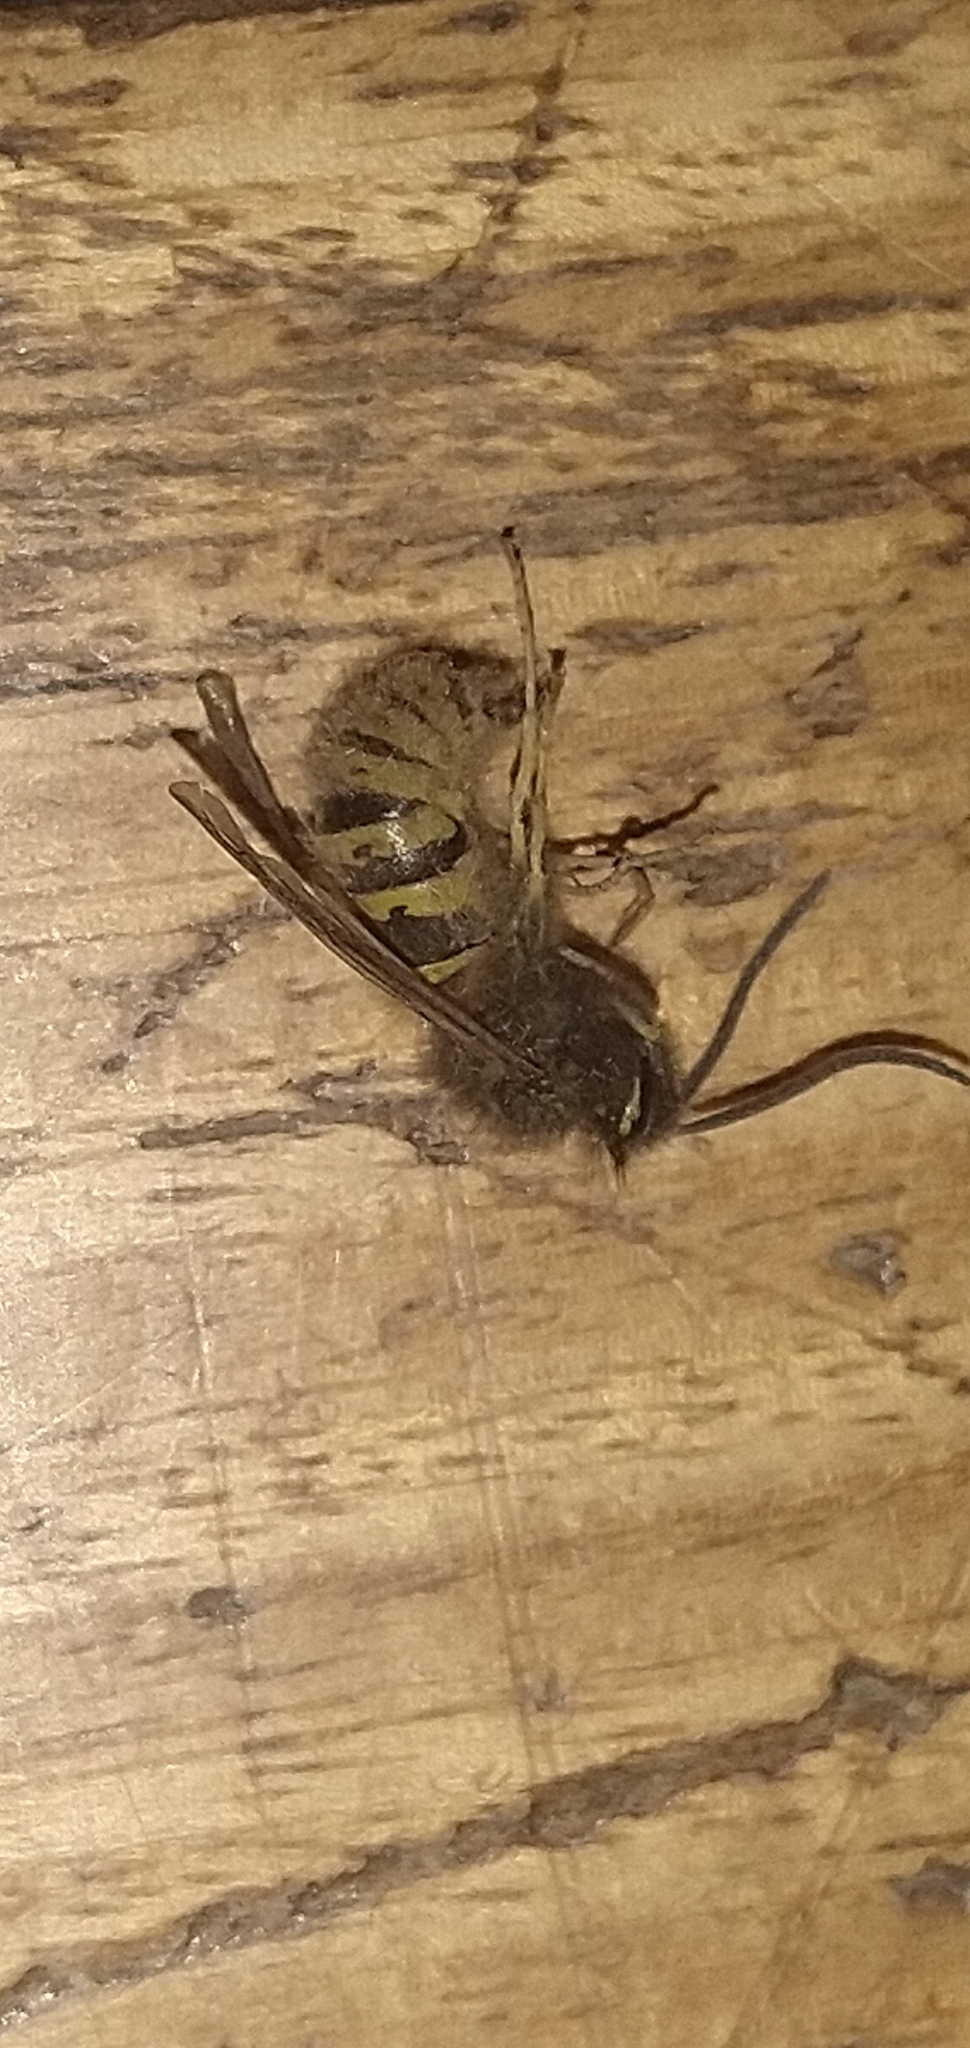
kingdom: Animalia
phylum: Arthropoda
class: Insecta
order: Hymenoptera
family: Vespidae
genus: Vespula
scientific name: Vespula vulgaris
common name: Common wasp
